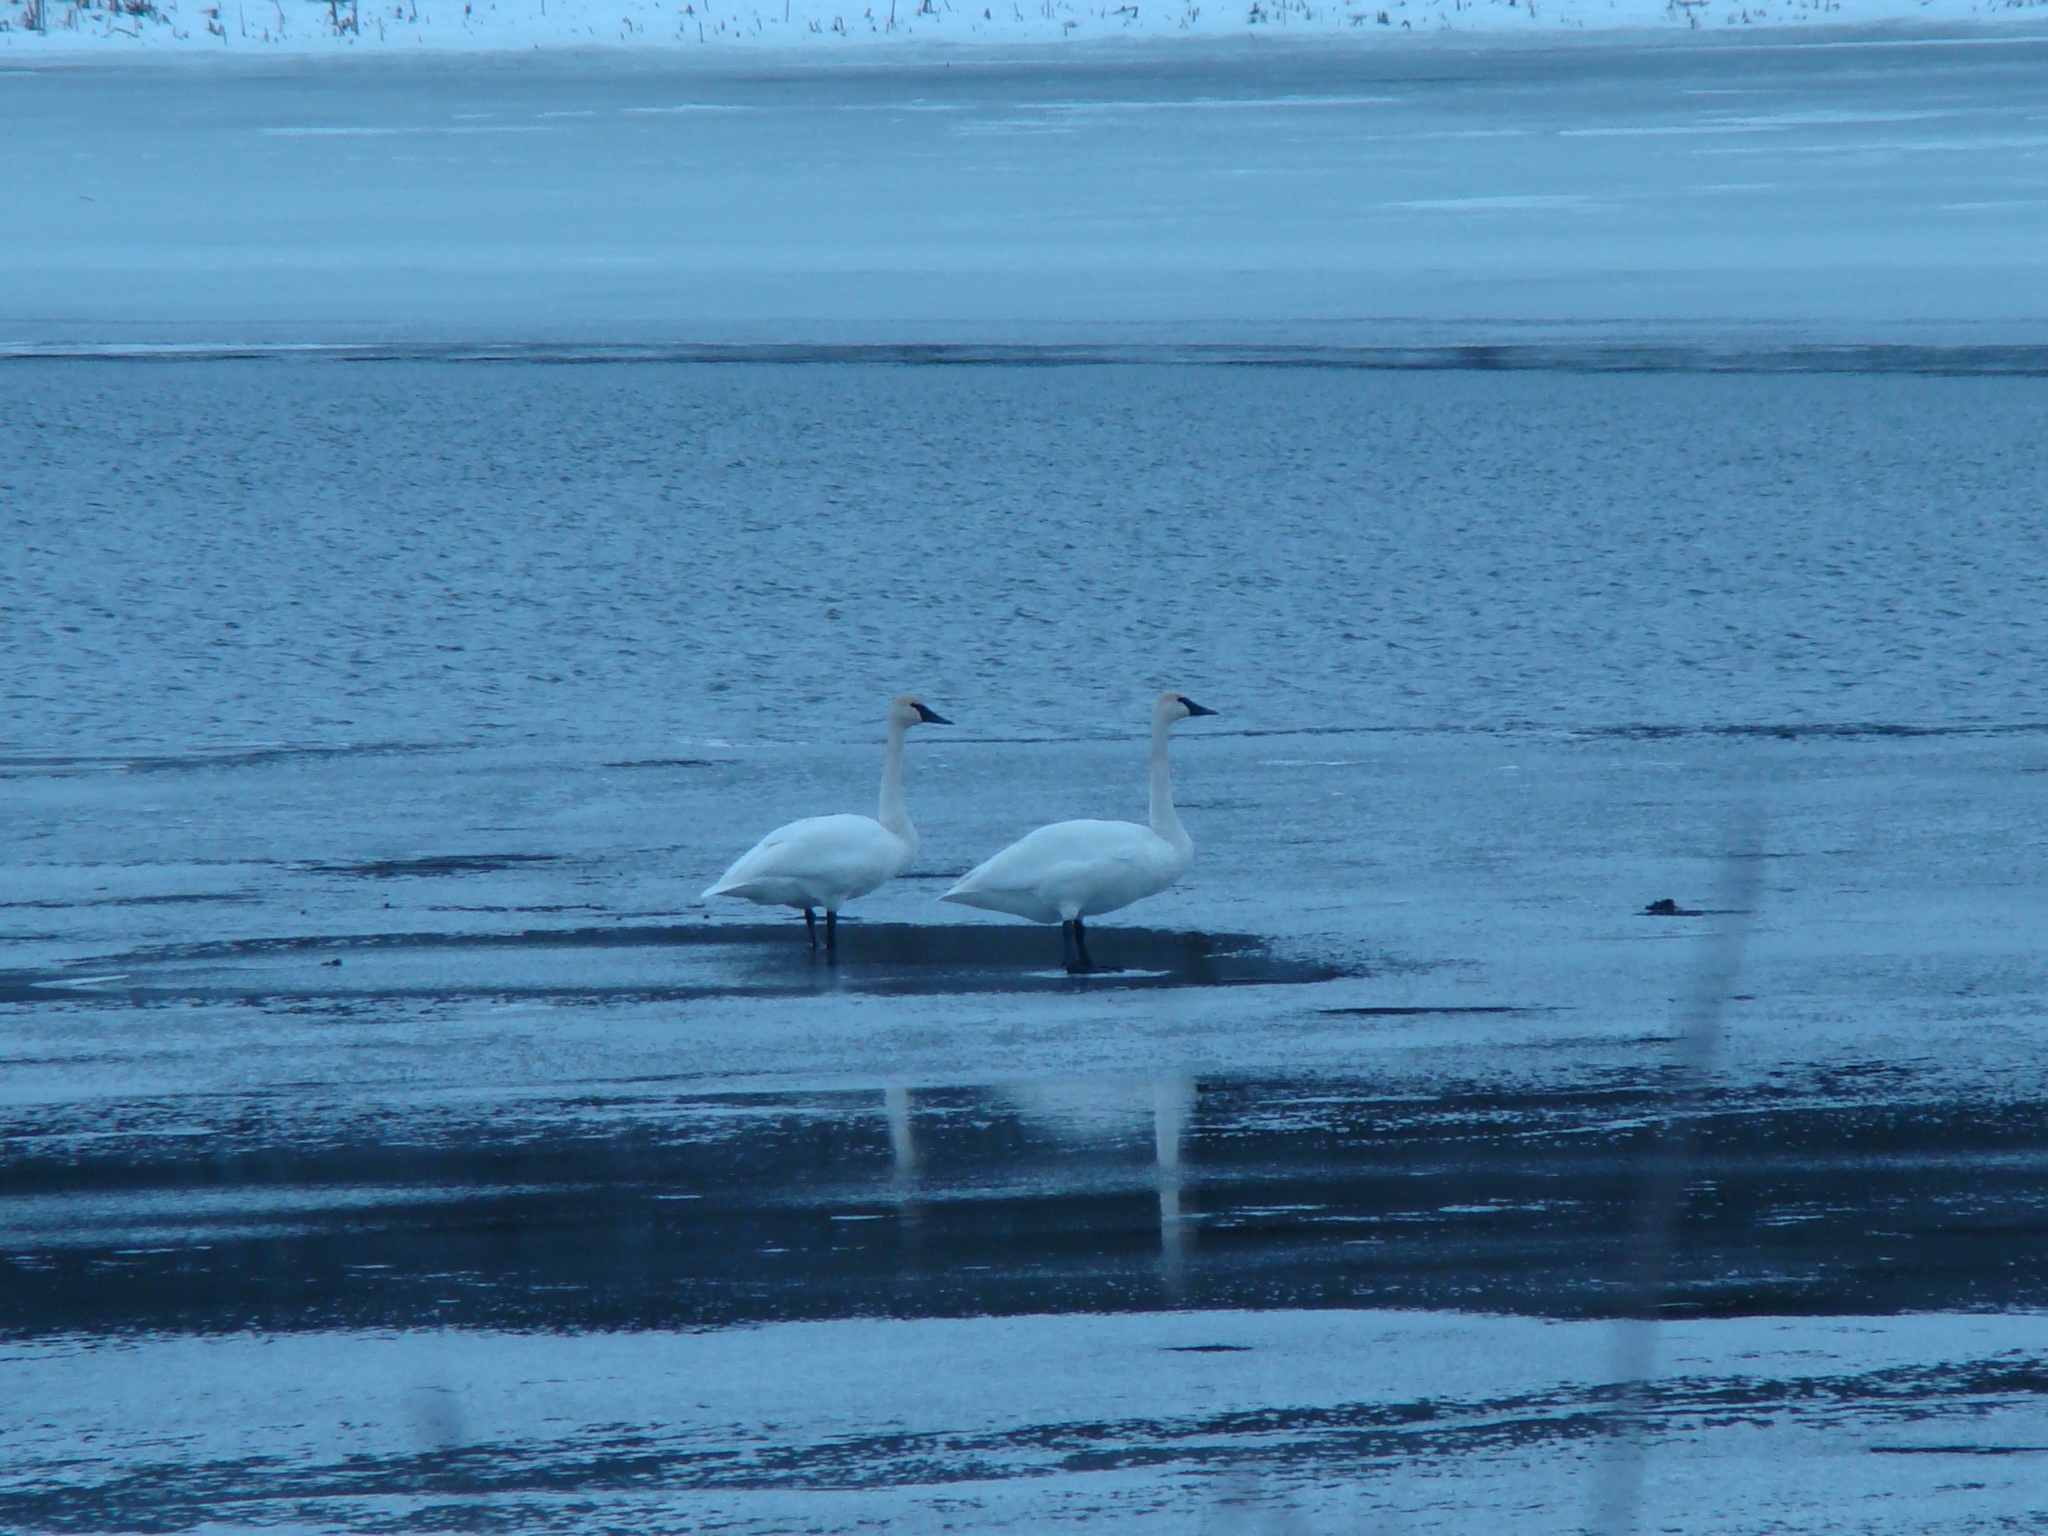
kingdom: Animalia
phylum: Chordata
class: Aves
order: Anseriformes
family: Anatidae
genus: Cygnus
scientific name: Cygnus buccinator
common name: Trumpeter swan
